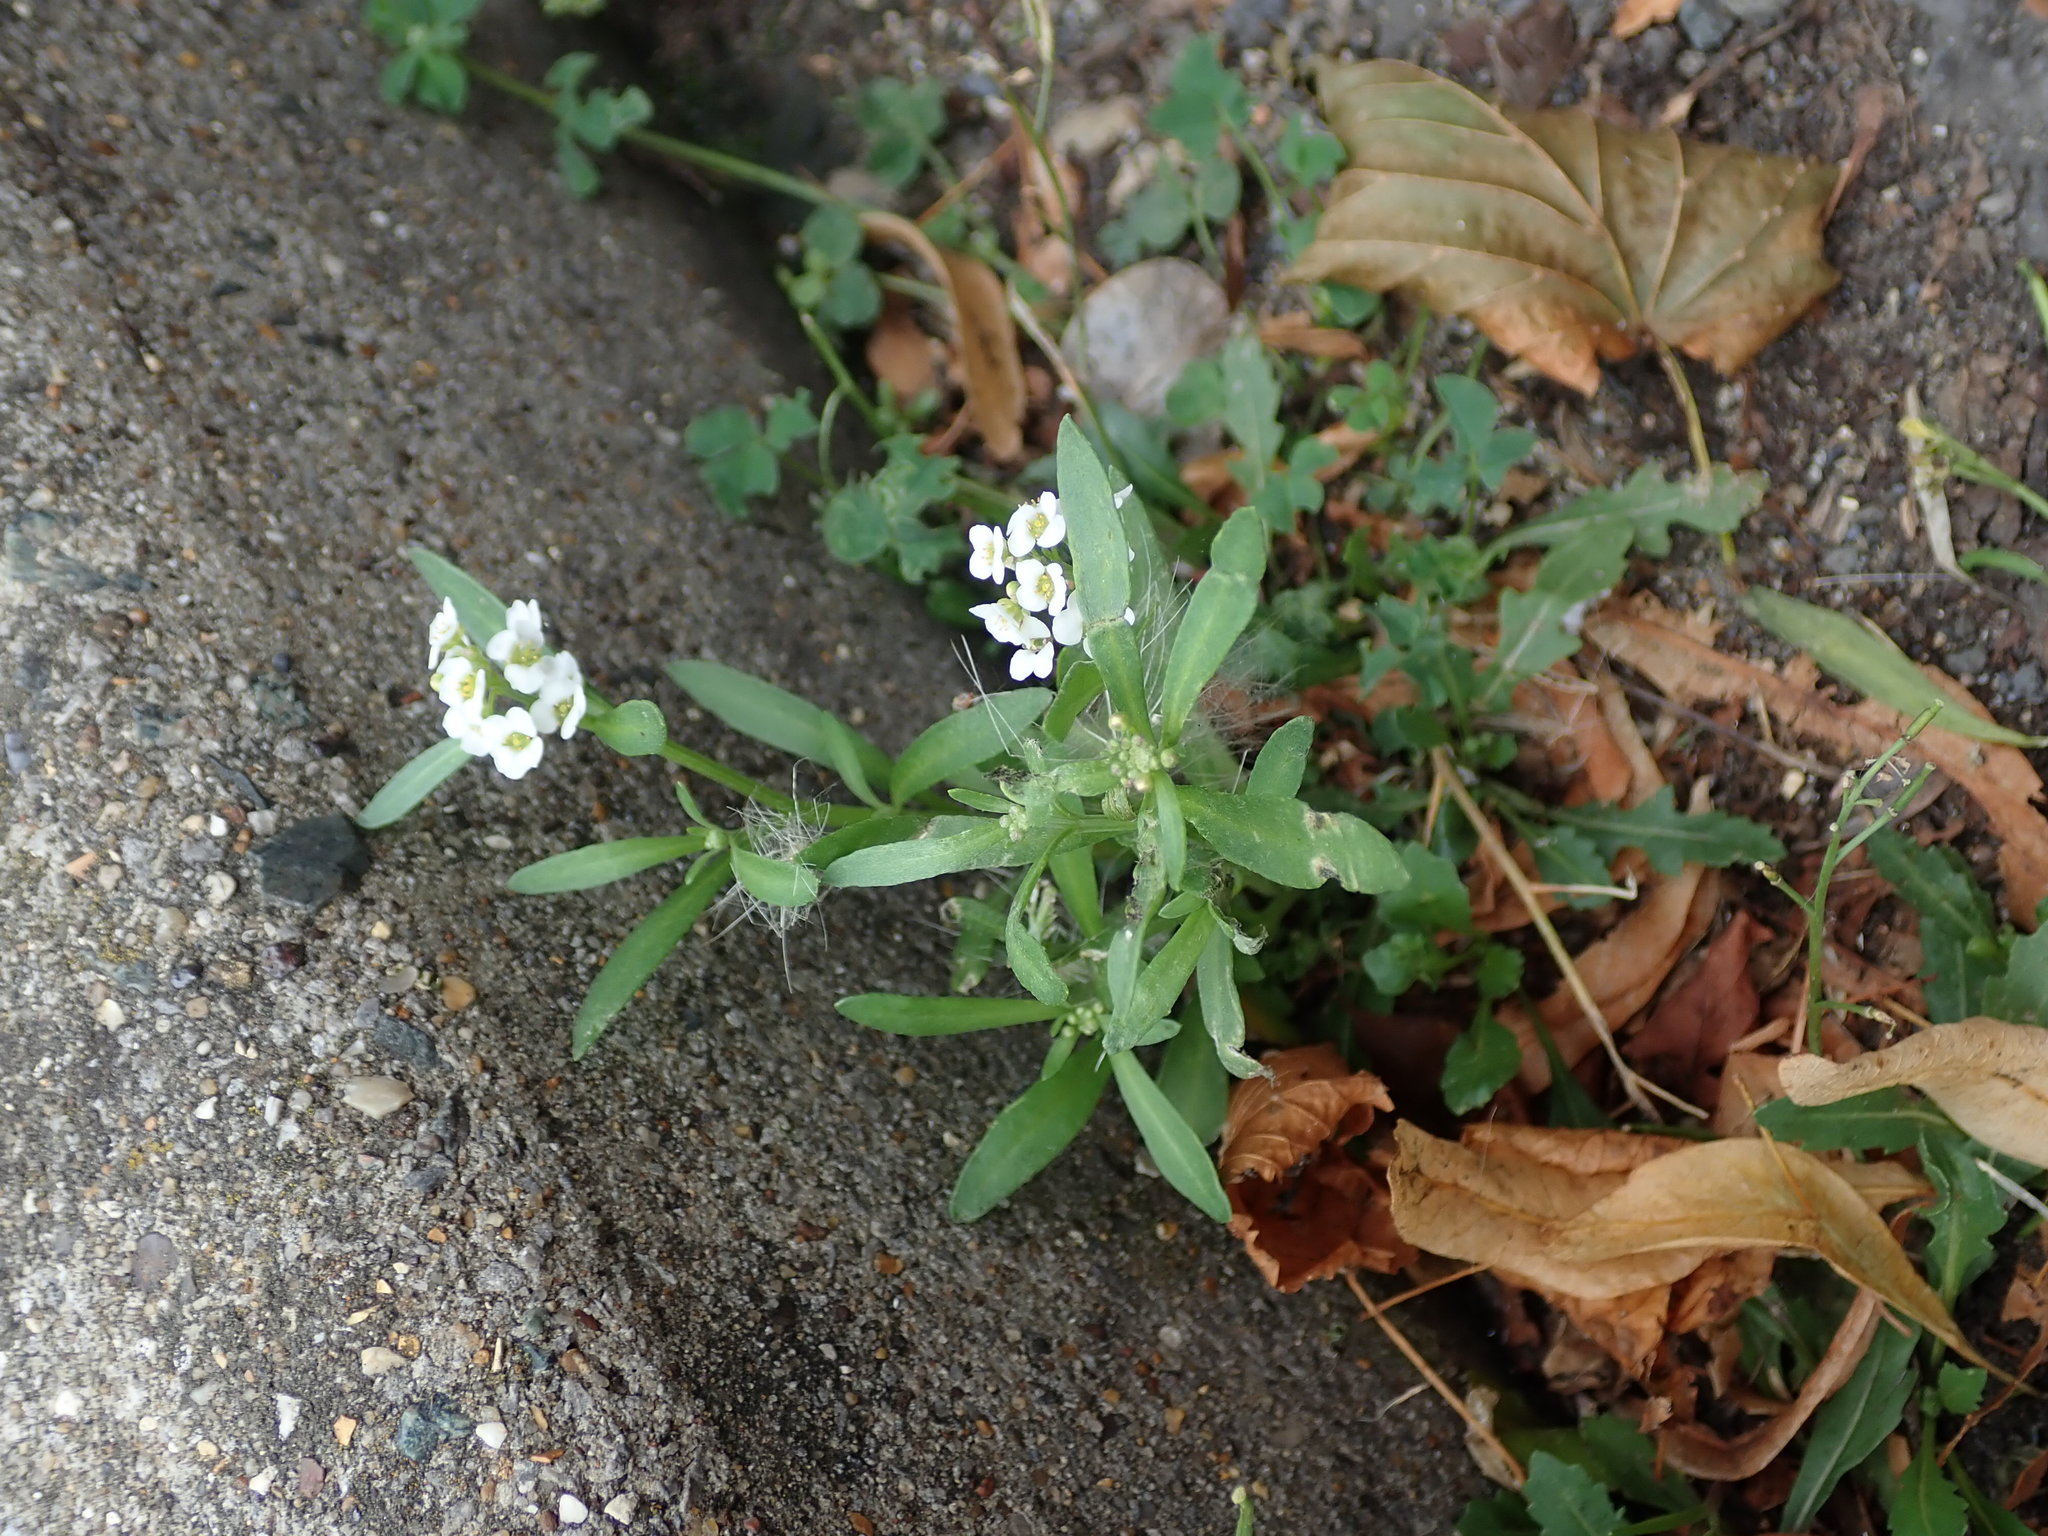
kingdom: Plantae
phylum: Tracheophyta
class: Magnoliopsida
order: Brassicales
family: Brassicaceae
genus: Lobularia
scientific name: Lobularia maritima
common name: Sweet alison
